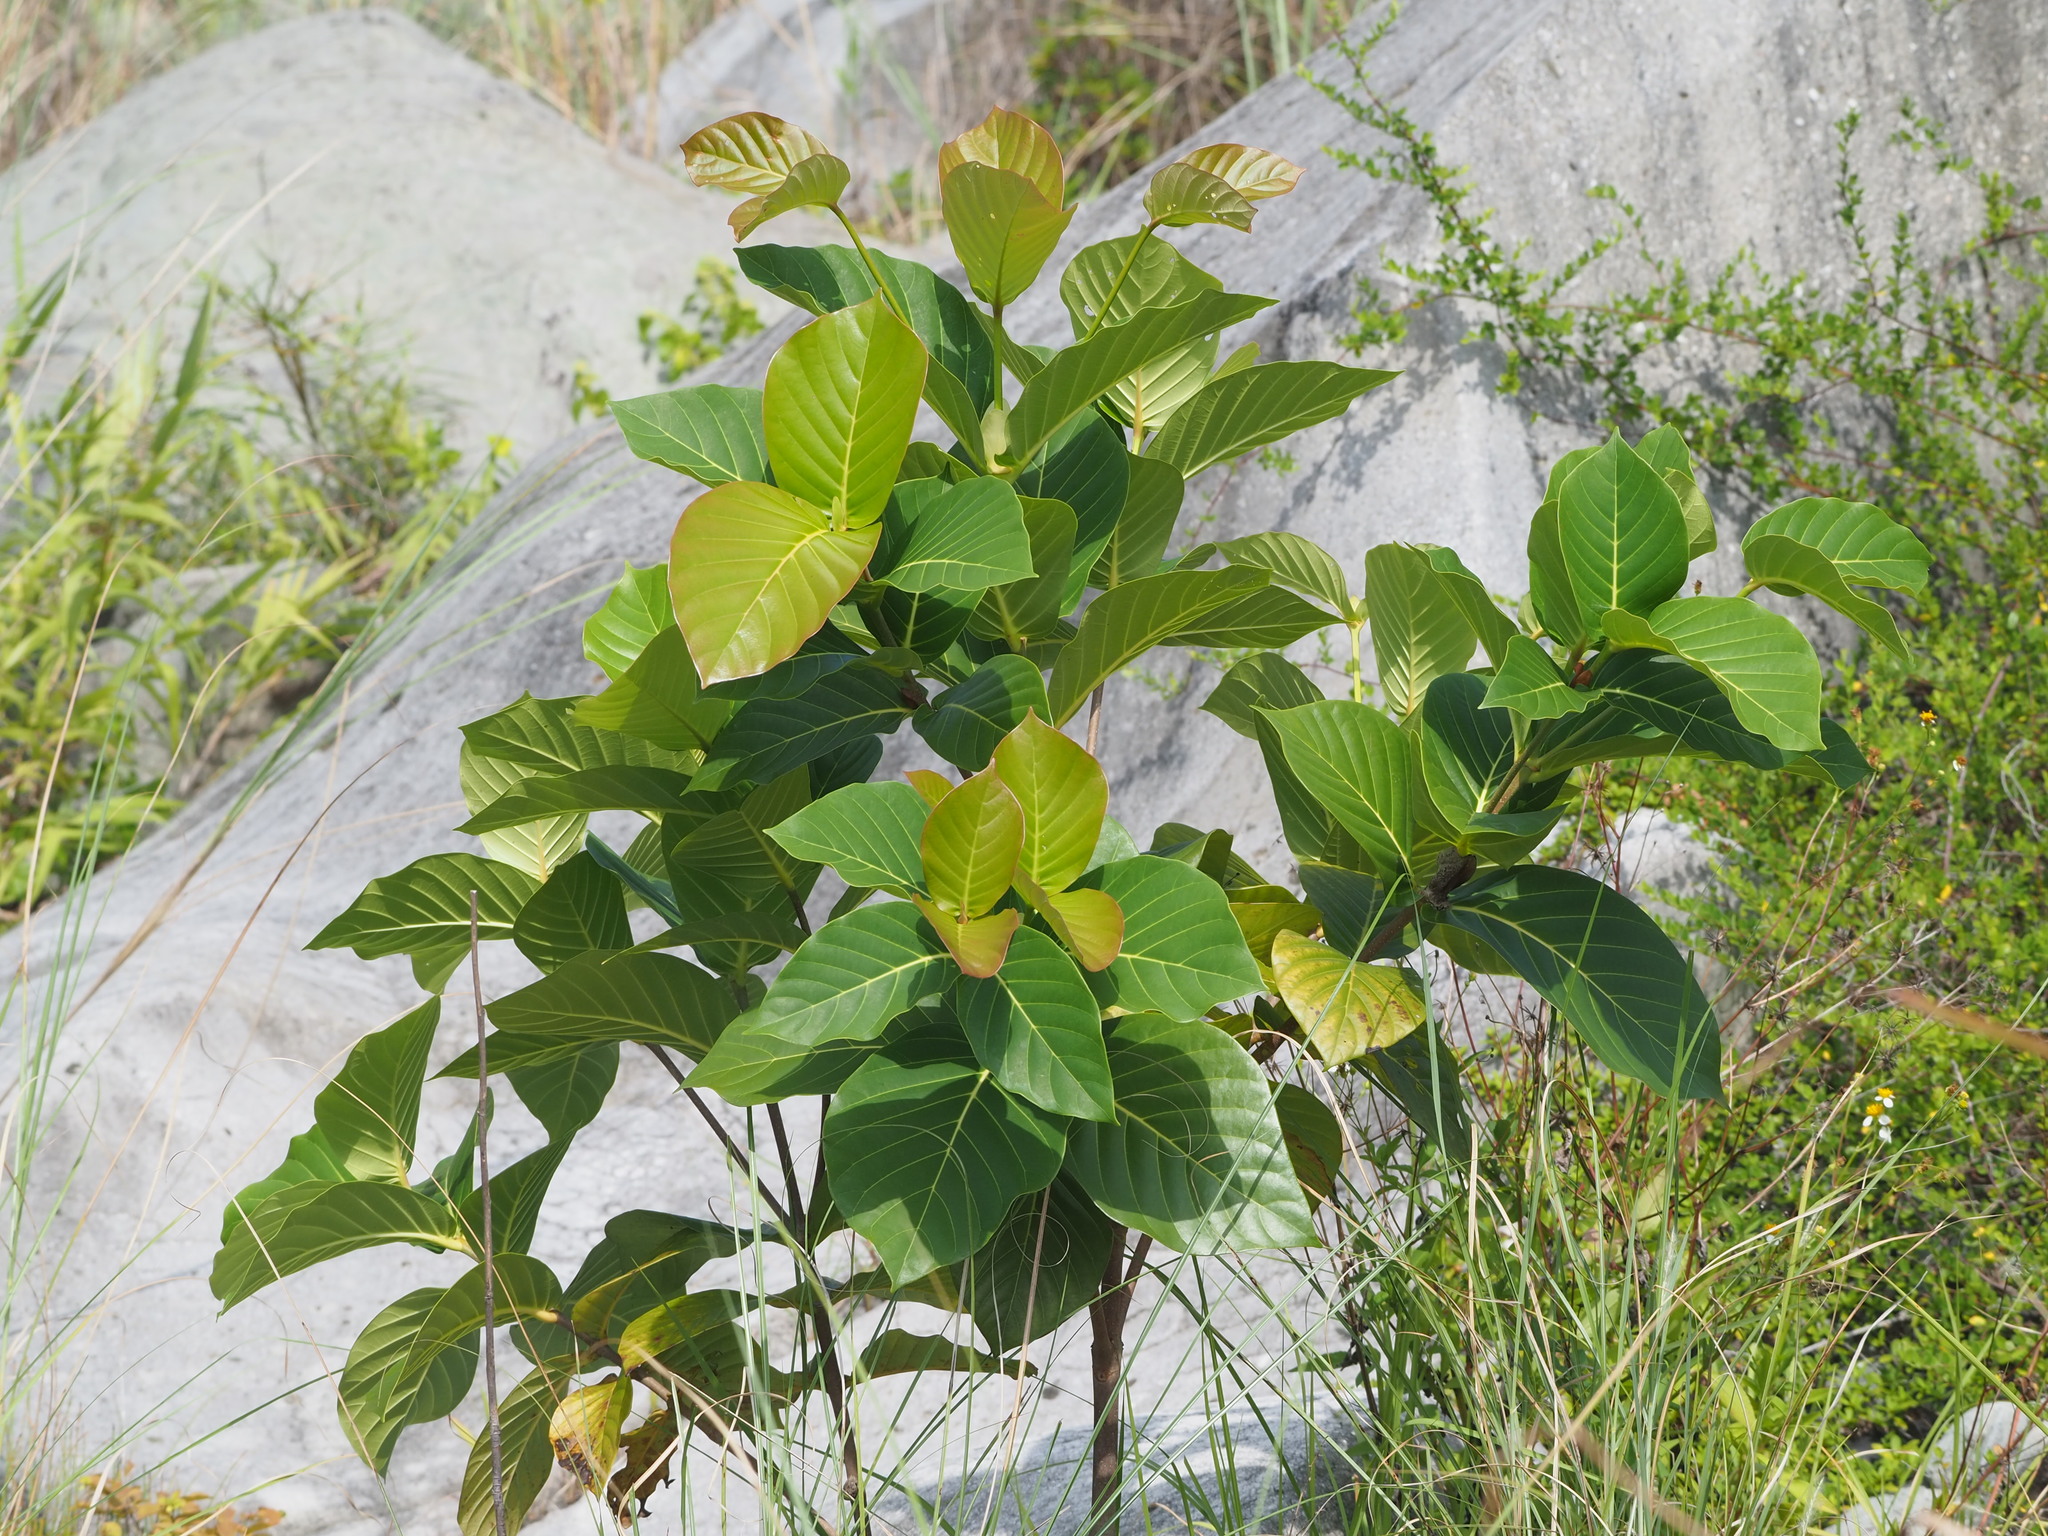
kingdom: Plantae
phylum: Tracheophyta
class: Magnoliopsida
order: Gentianales
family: Rubiaceae
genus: Neonauclea
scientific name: Neonauclea reticulata
